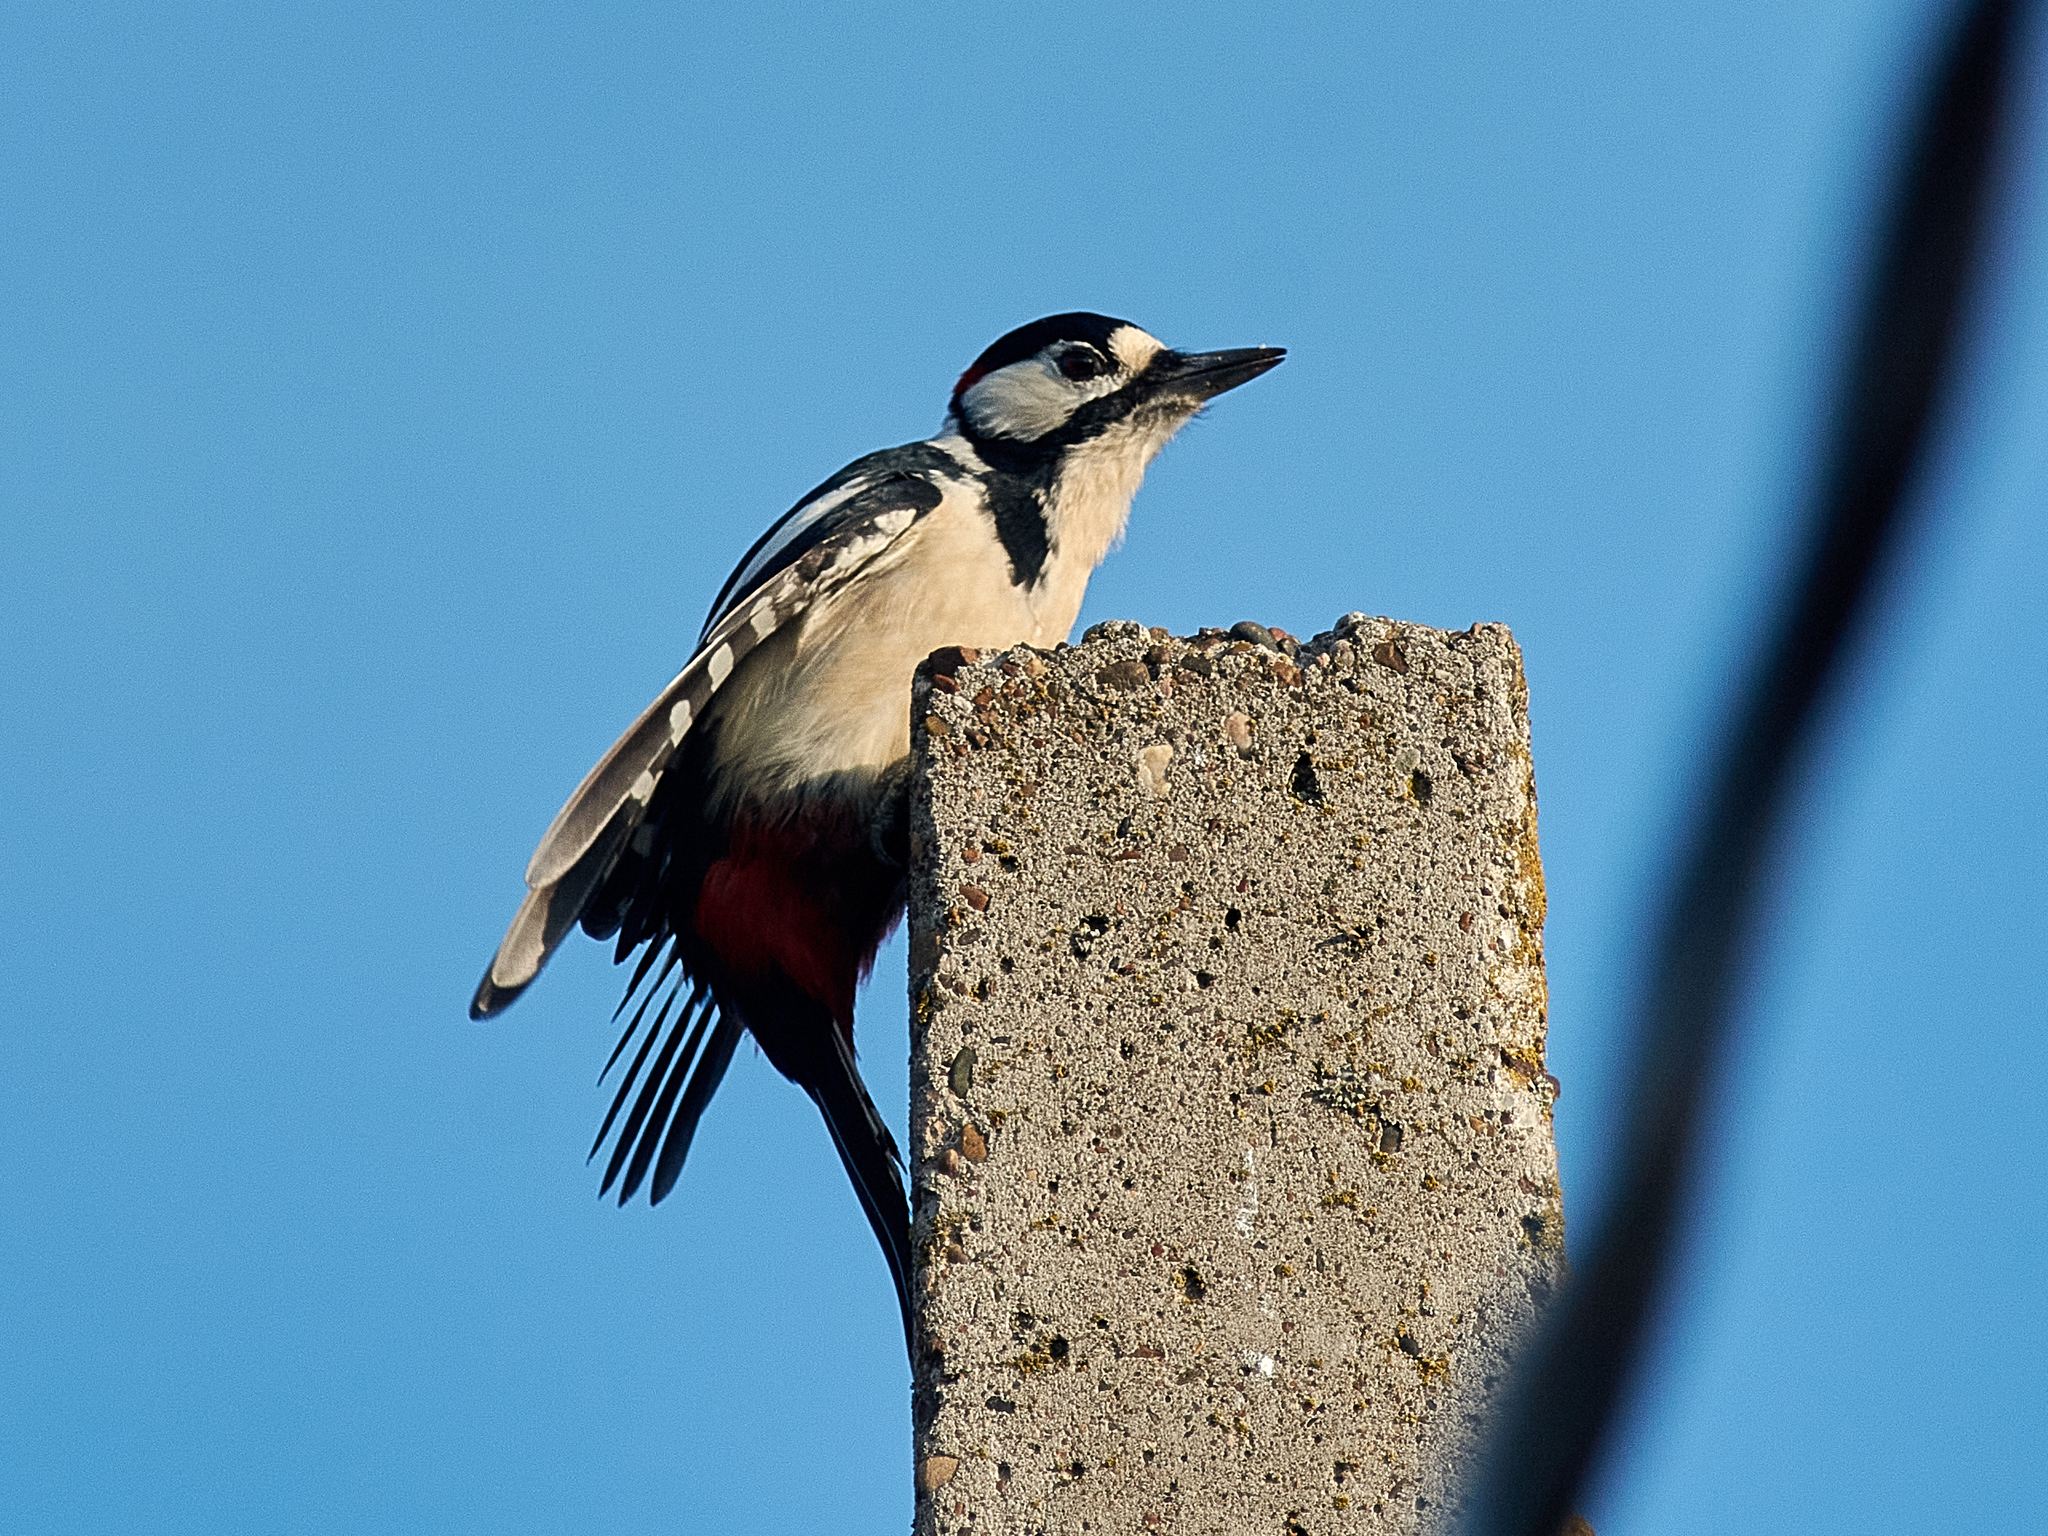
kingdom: Animalia
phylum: Chordata
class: Aves
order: Piciformes
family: Picidae
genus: Dendrocopos
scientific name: Dendrocopos major
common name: Great spotted woodpecker
